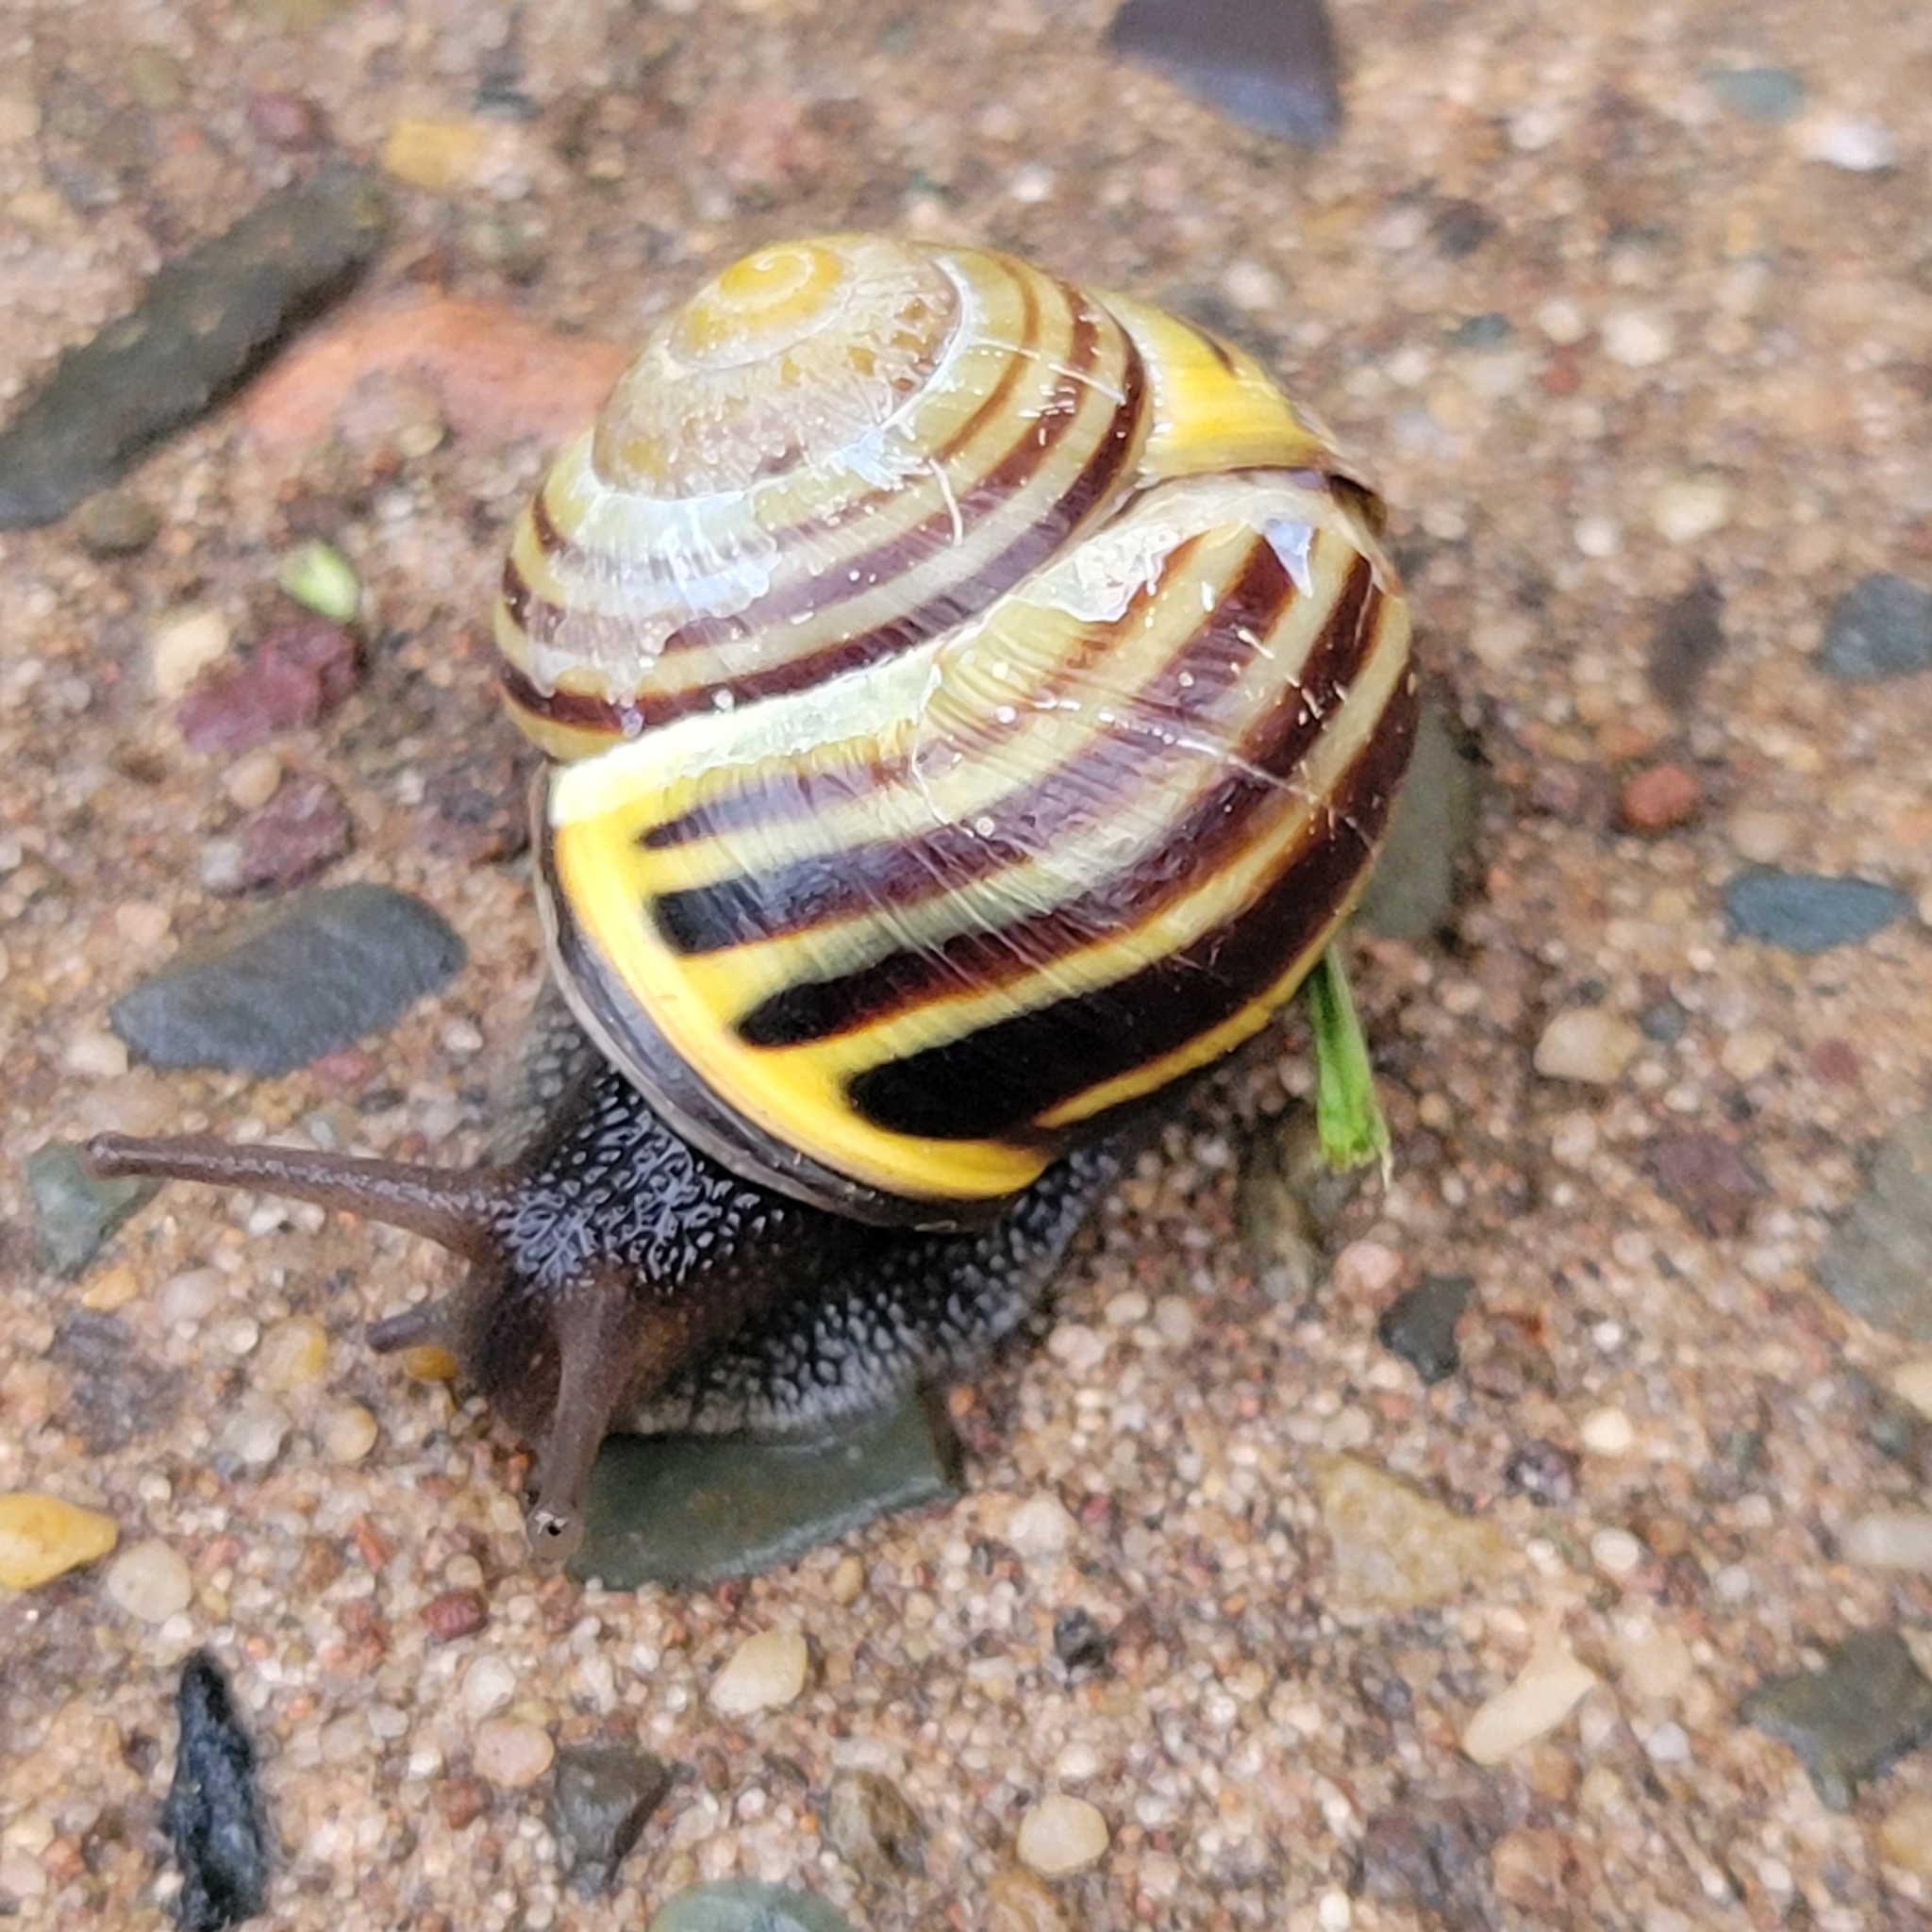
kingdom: Animalia
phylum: Mollusca
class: Gastropoda
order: Stylommatophora
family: Helicidae
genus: Cepaea
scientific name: Cepaea nemoralis
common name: Grovesnail
